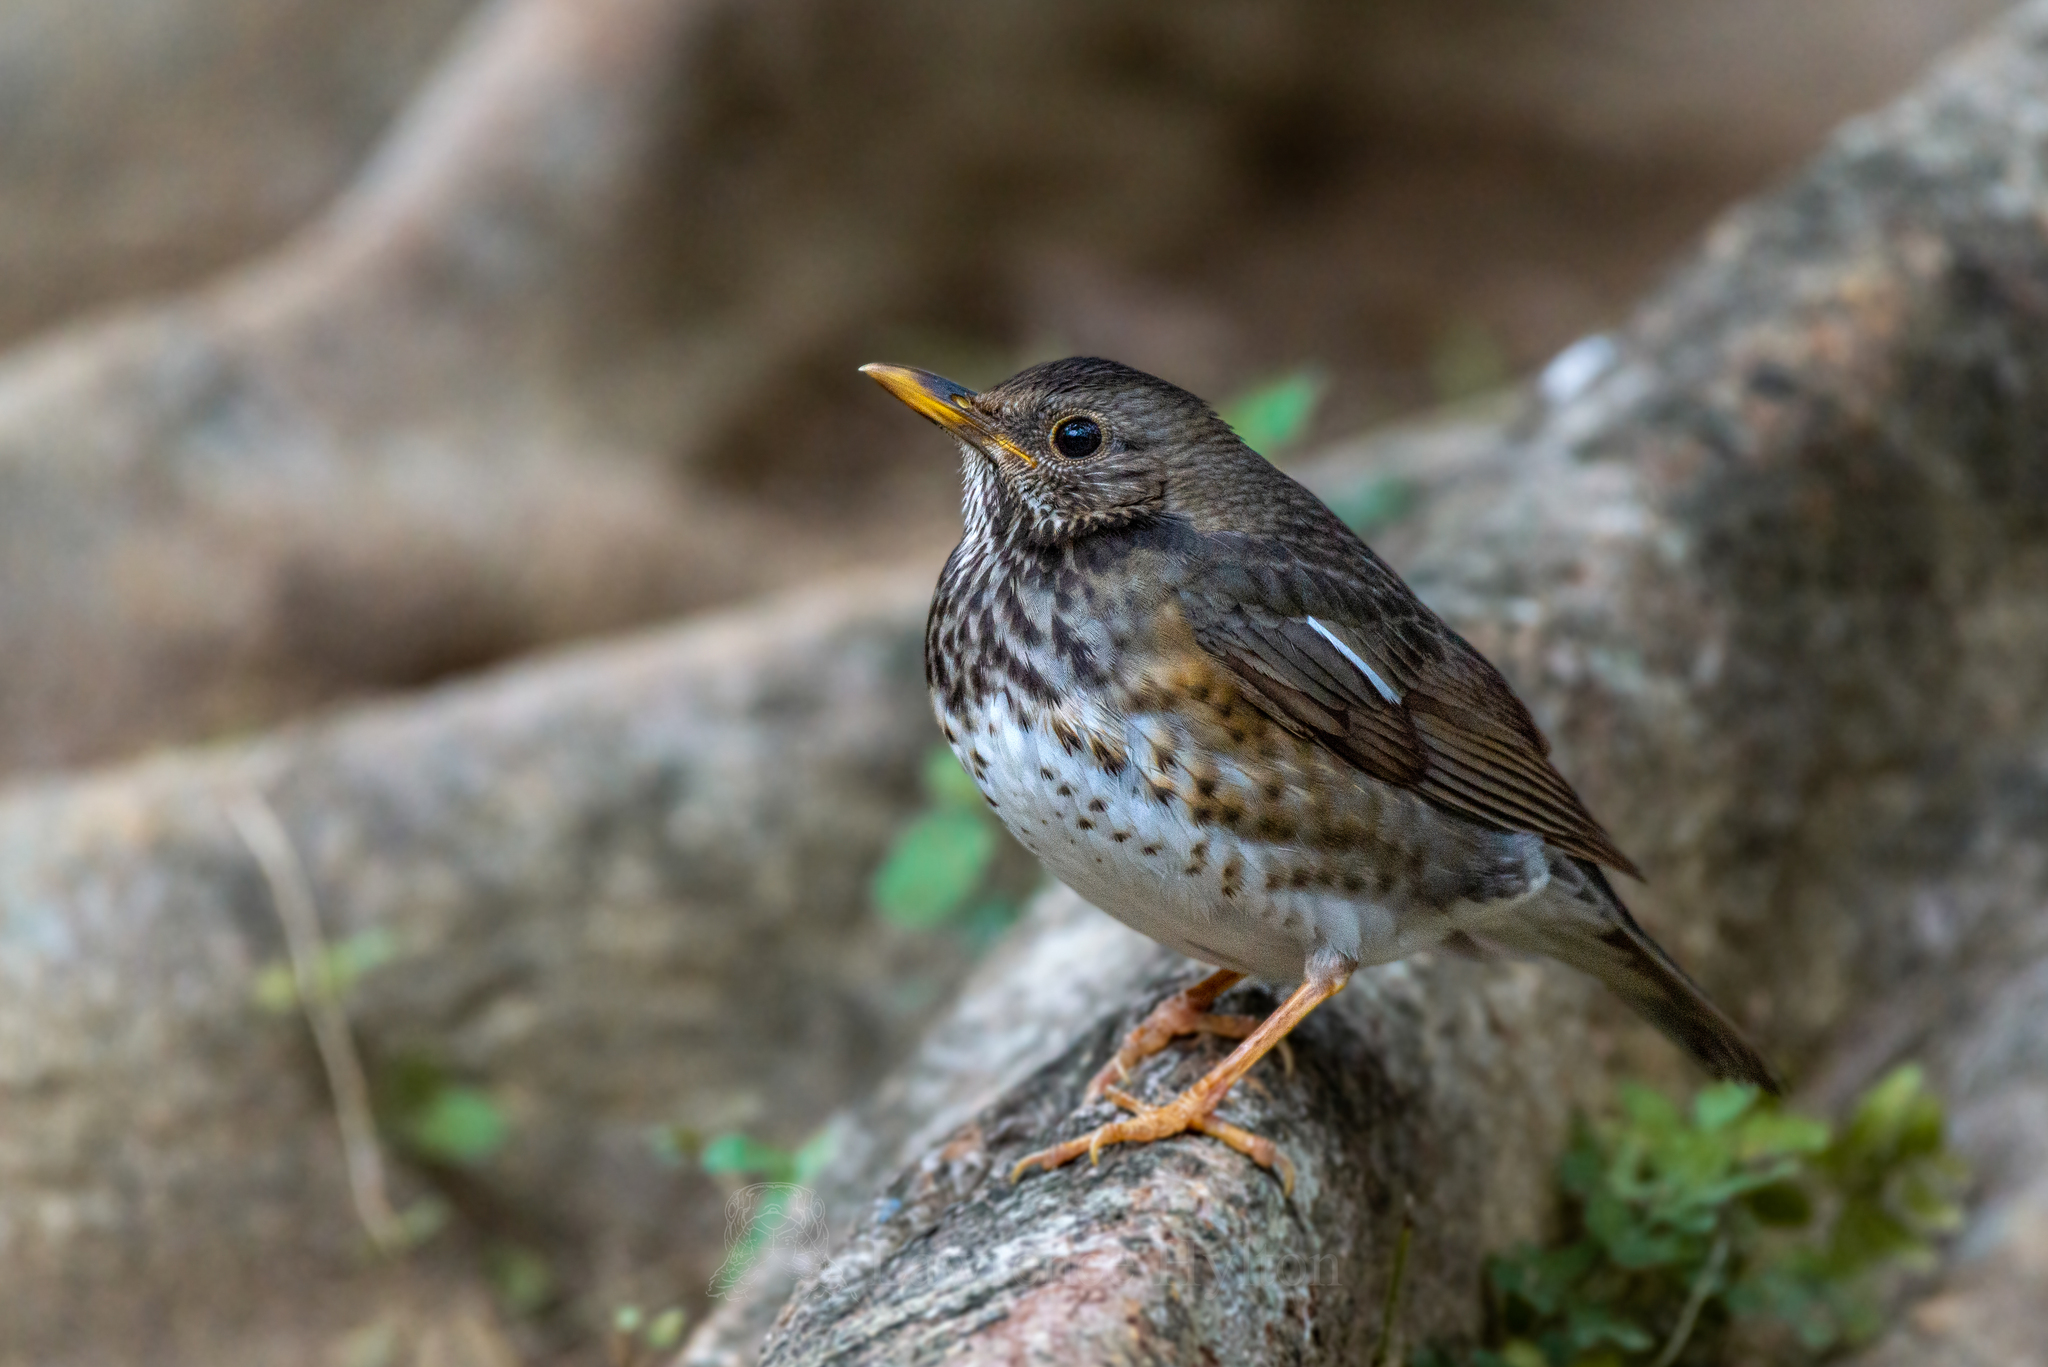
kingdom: Animalia
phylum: Chordata
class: Aves
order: Passeriformes
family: Turdidae
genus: Turdus
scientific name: Turdus cardis
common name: Japanese thrush
